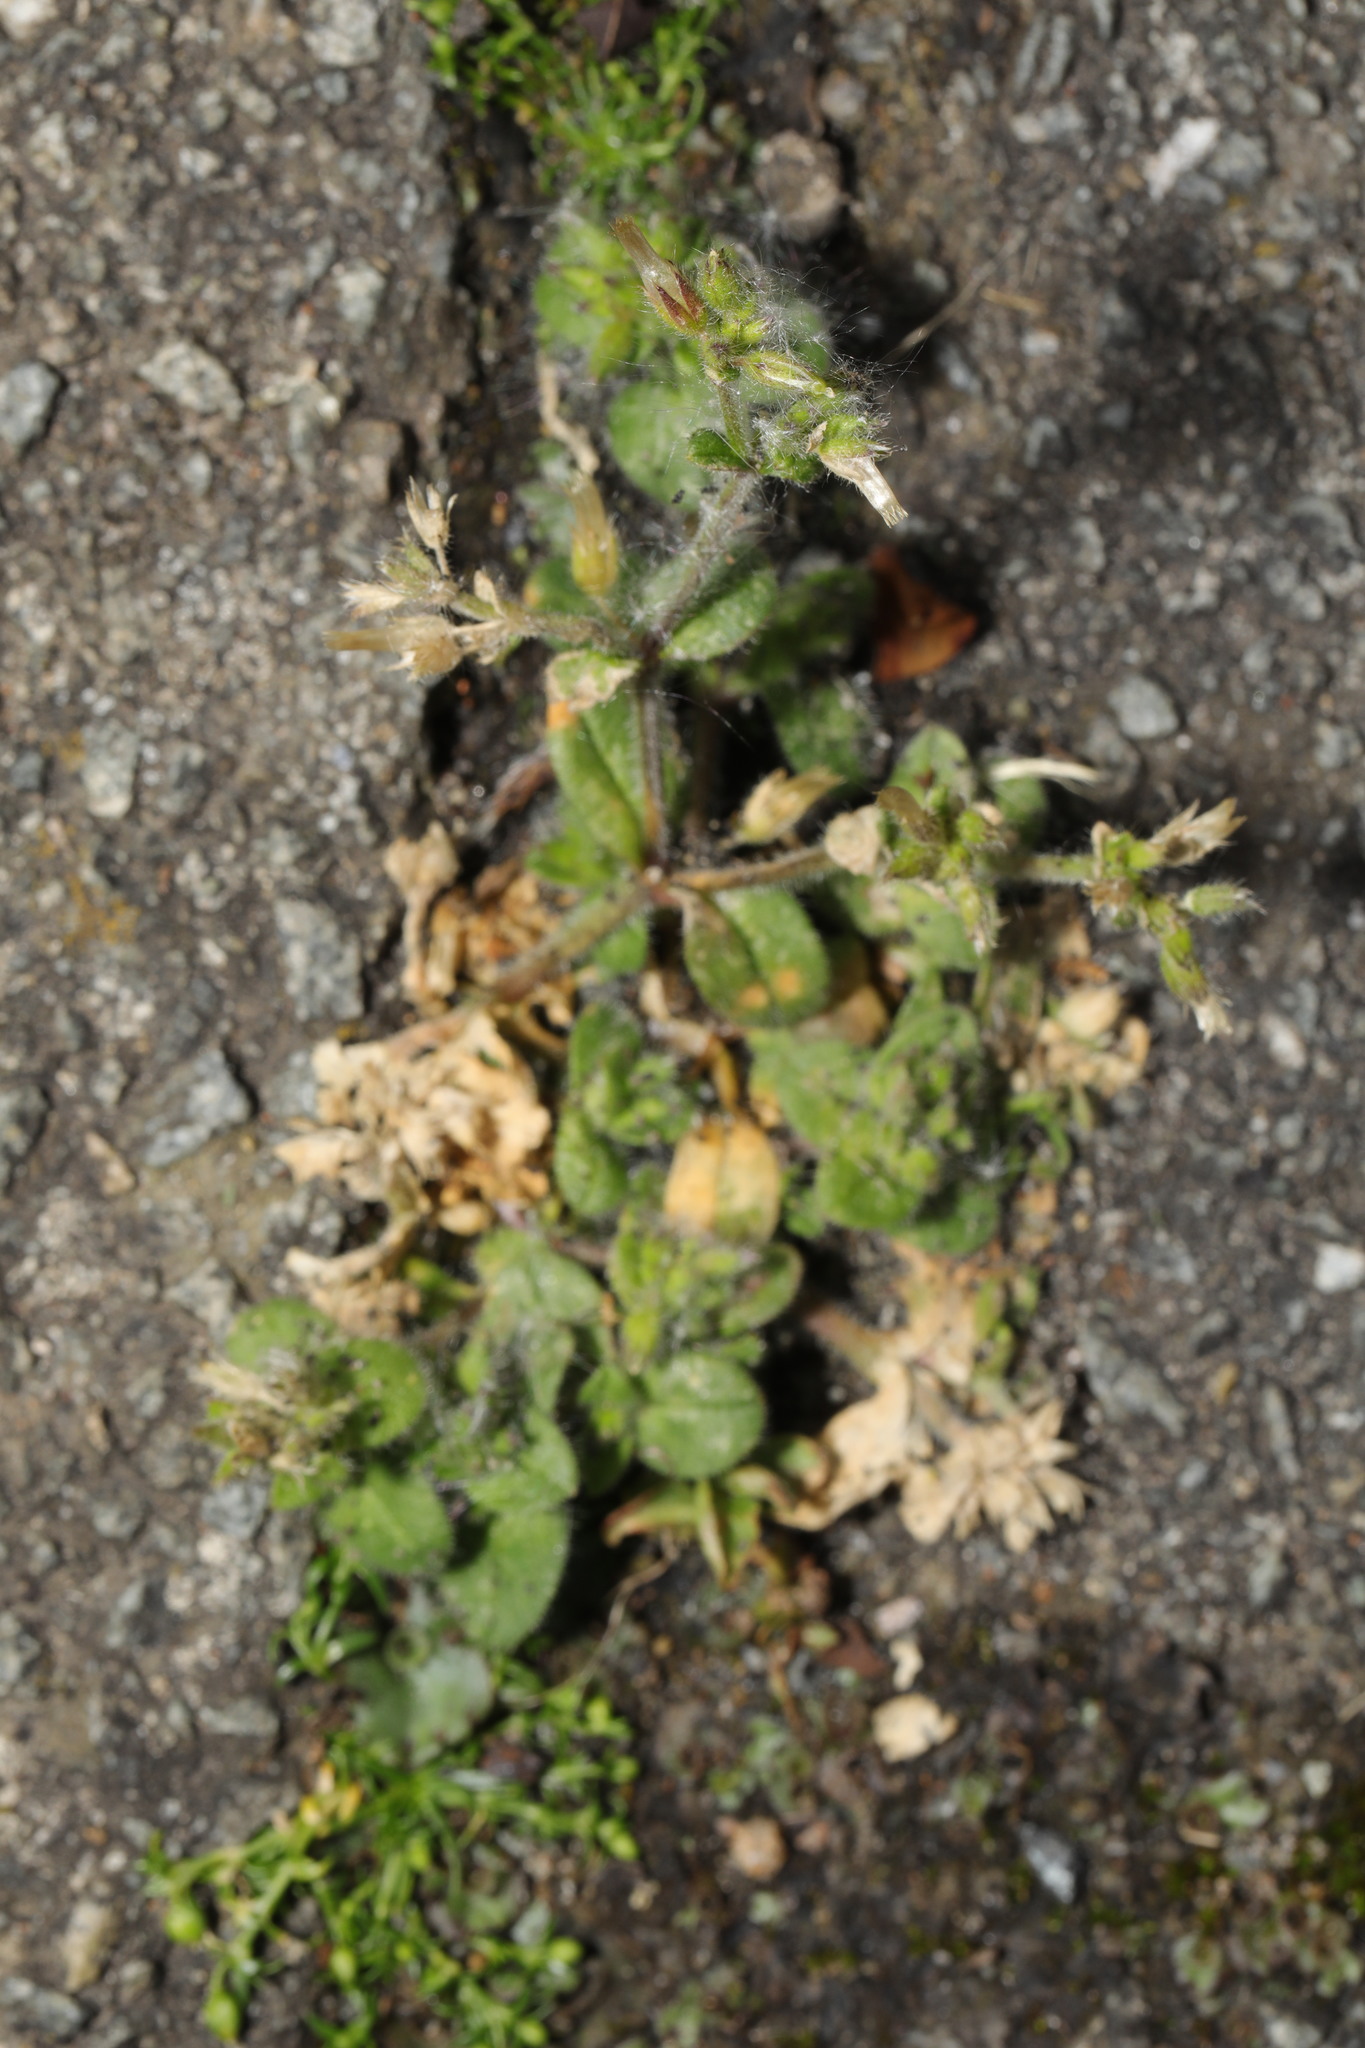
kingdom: Plantae
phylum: Tracheophyta
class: Magnoliopsida
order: Caryophyllales
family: Caryophyllaceae
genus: Cerastium
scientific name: Cerastium glomeratum
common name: Sticky chickweed
